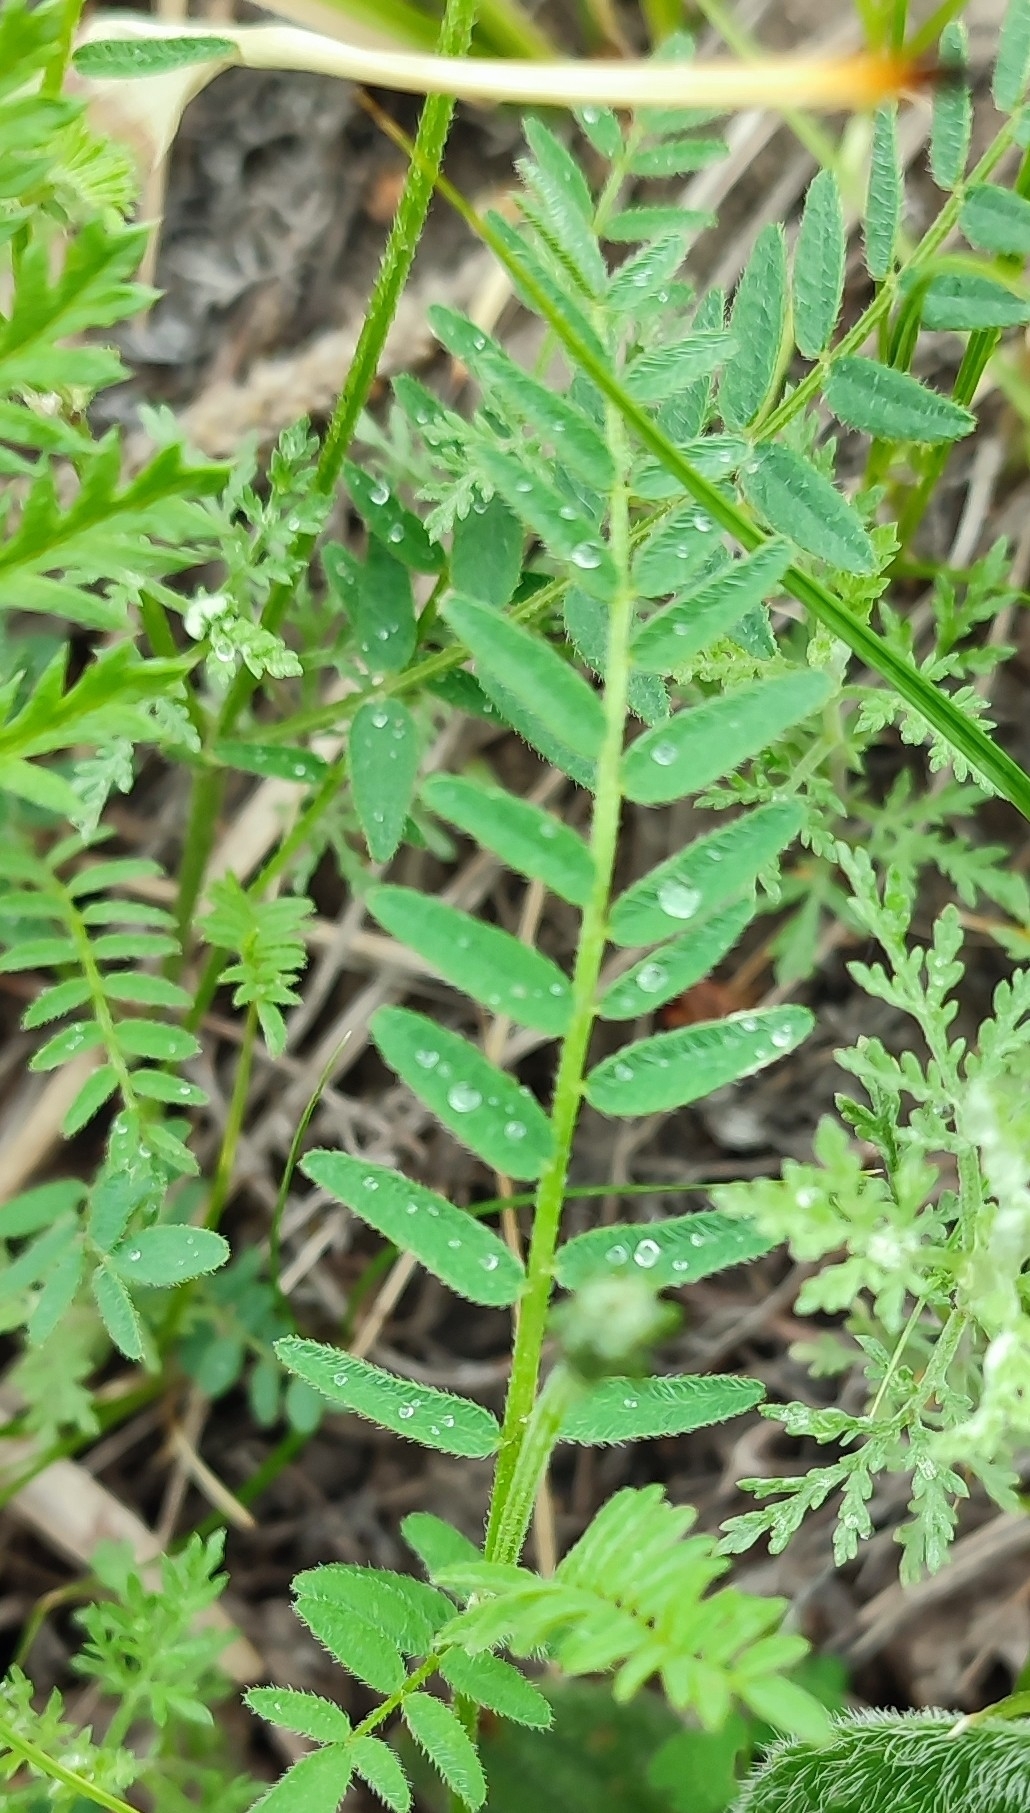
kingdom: Plantae
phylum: Tracheophyta
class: Magnoliopsida
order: Fabales
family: Fabaceae
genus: Astragalus
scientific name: Astragalus danicus
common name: Purple milk-vetch
